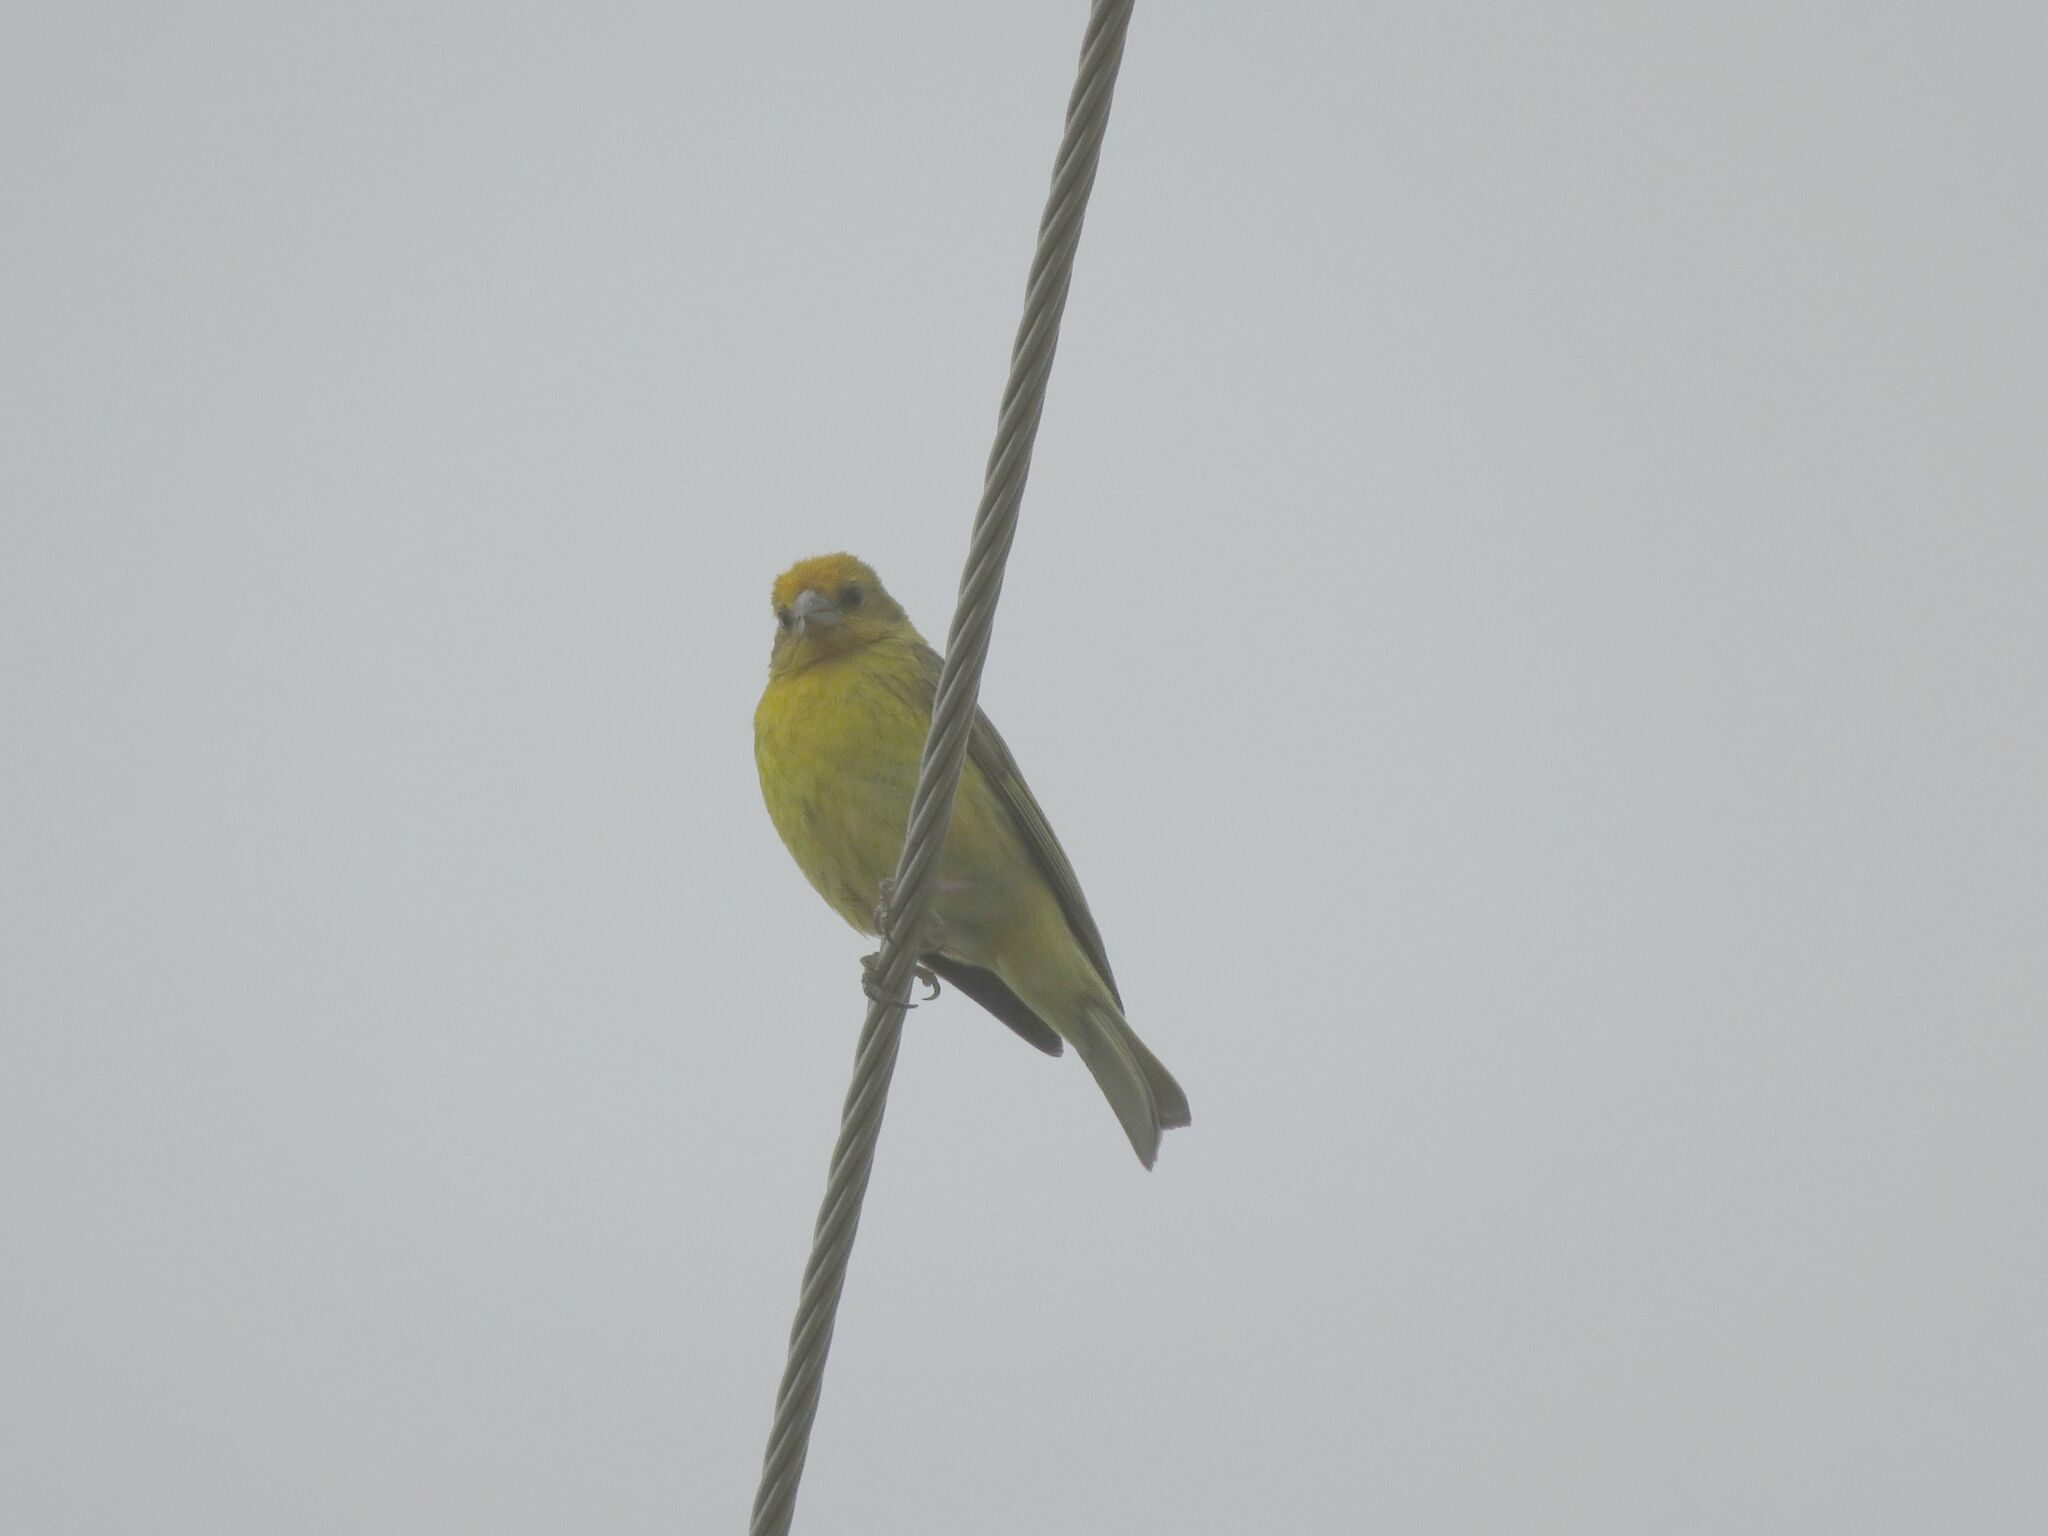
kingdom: Animalia
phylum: Chordata
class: Aves
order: Passeriformes
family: Thraupidae
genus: Sicalis
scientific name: Sicalis flaveola
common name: Saffron finch
